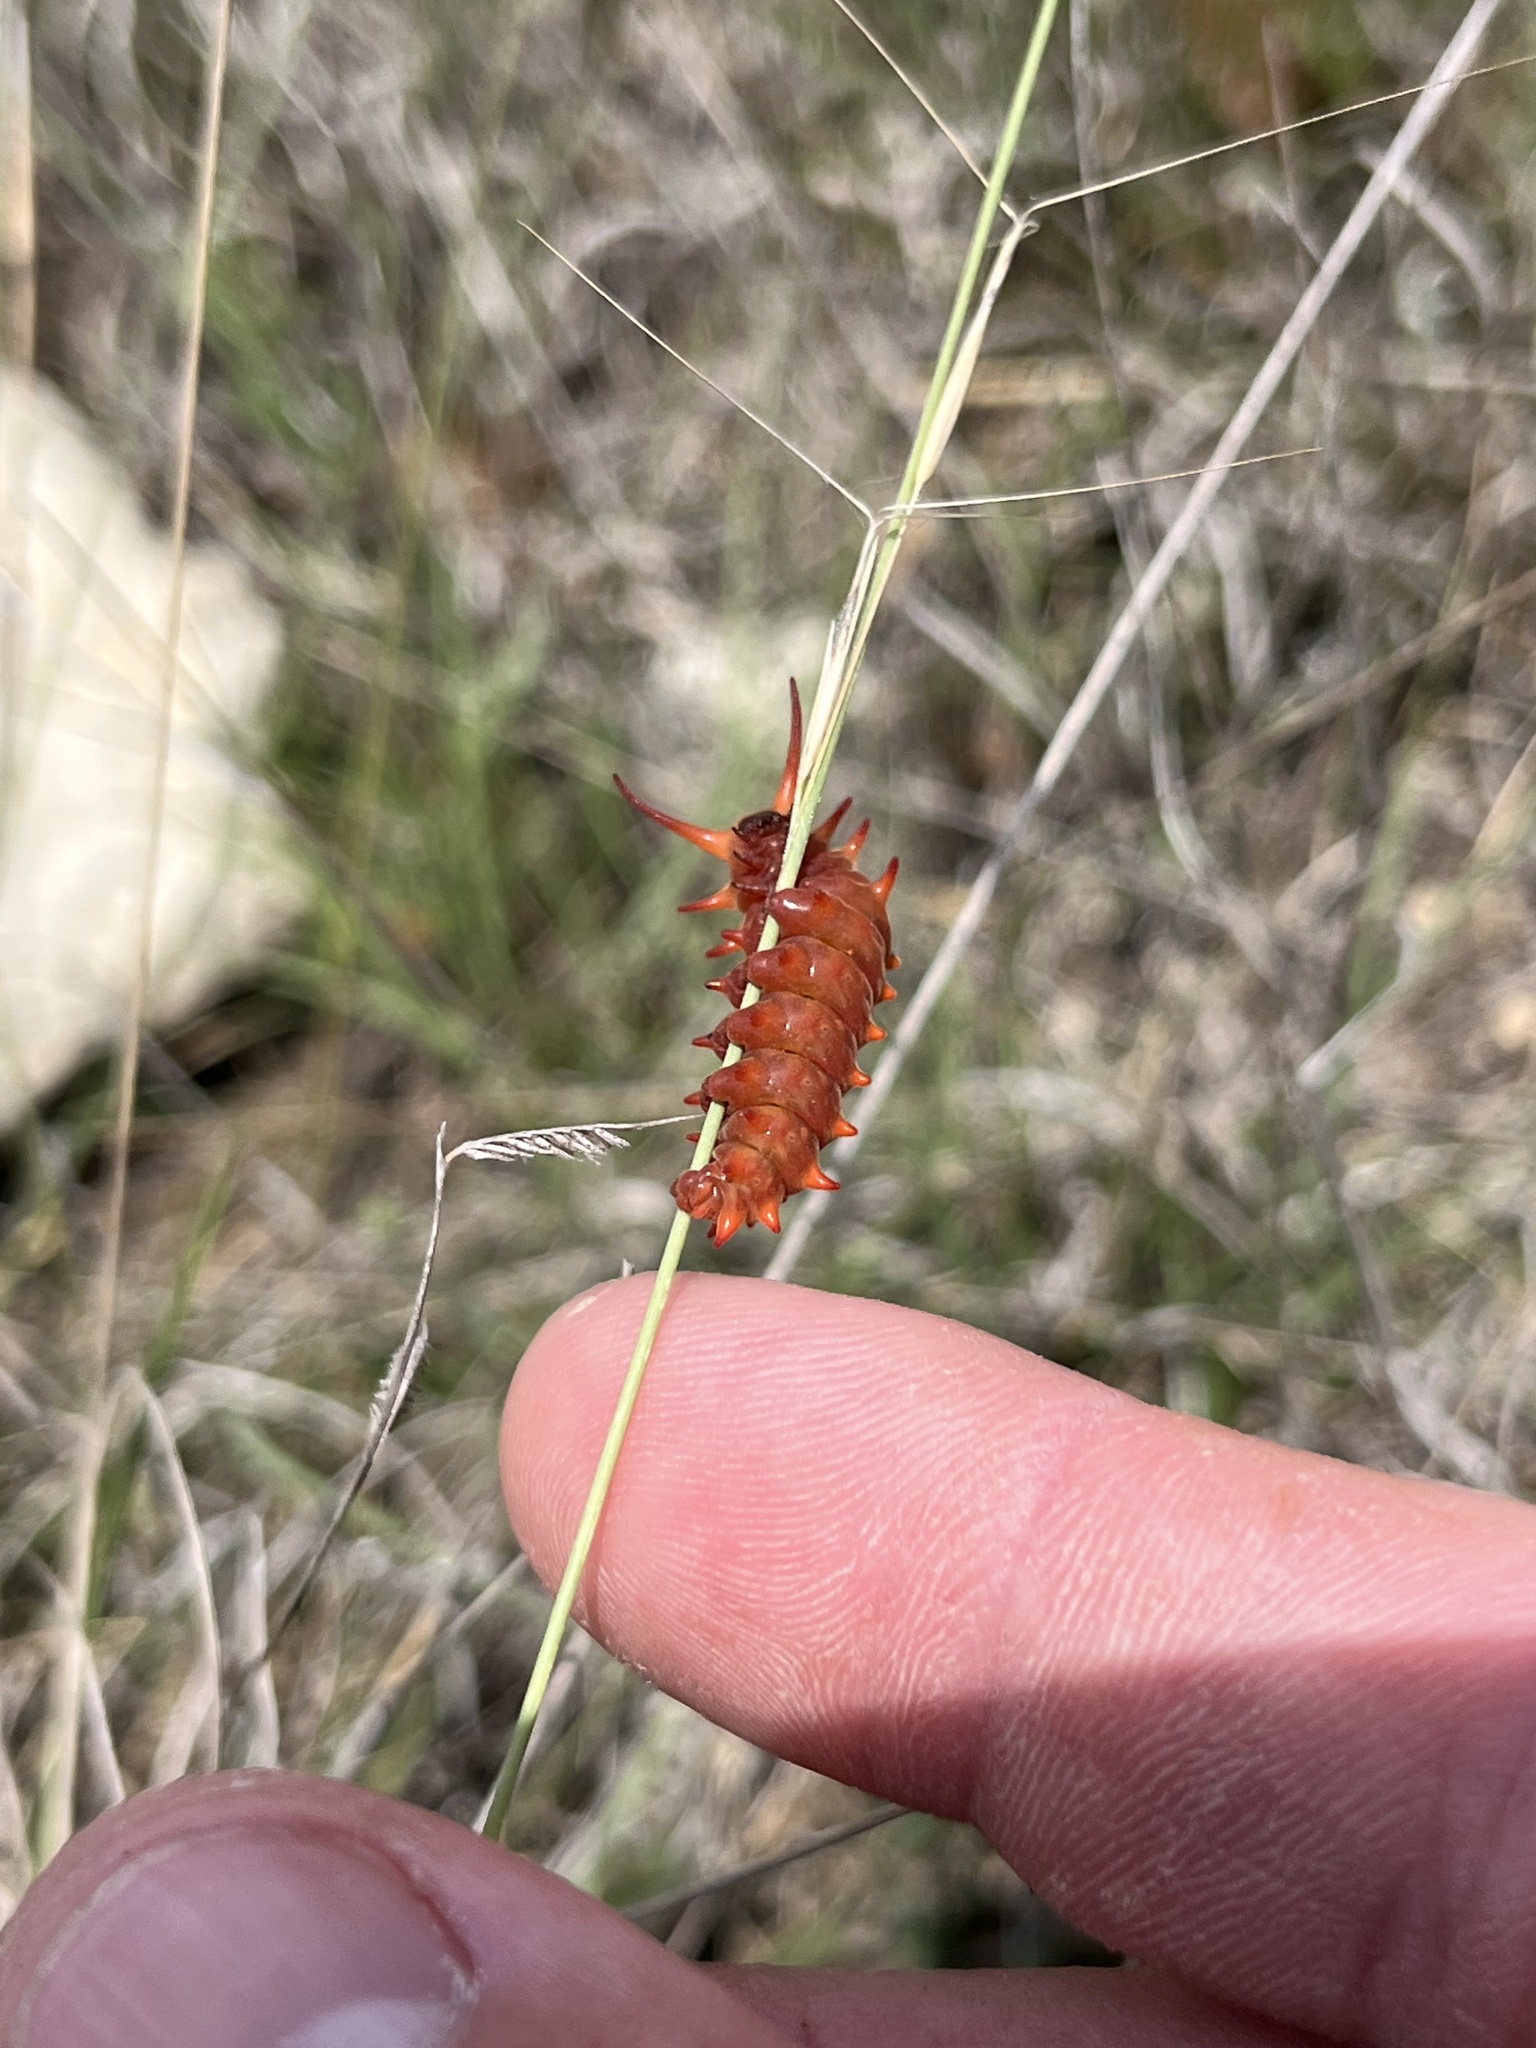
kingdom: Animalia
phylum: Arthropoda
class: Insecta
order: Lepidoptera
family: Papilionidae
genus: Battus
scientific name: Battus philenor
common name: Pipevine swallowtail
